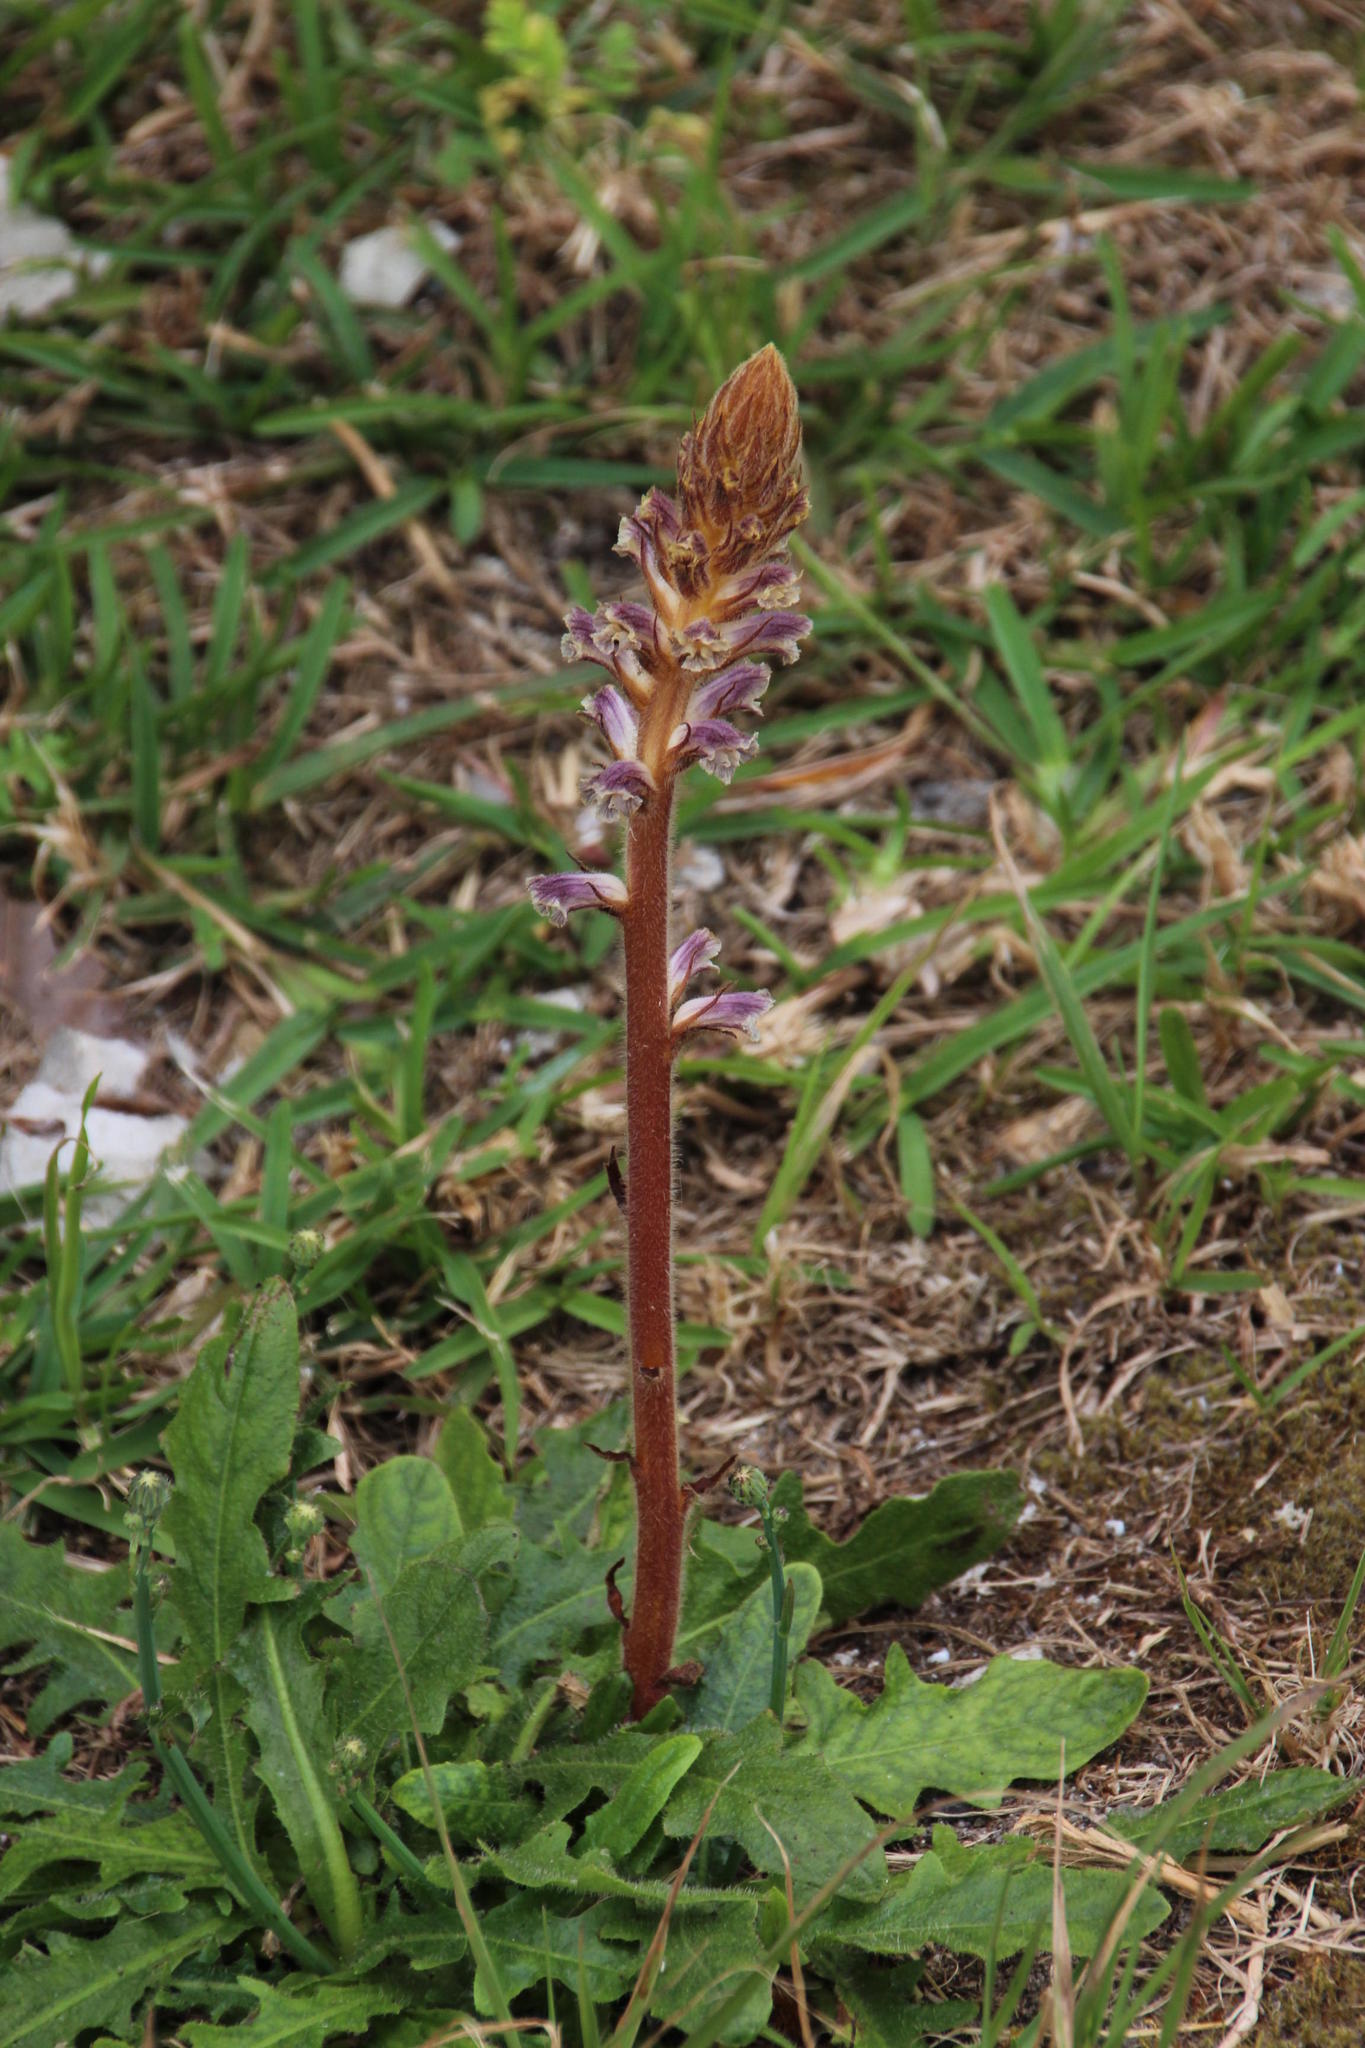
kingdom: Plantae
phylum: Tracheophyta
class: Magnoliopsida
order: Lamiales
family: Orobanchaceae
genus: Orobanche
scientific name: Orobanche minor
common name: Common broomrape
